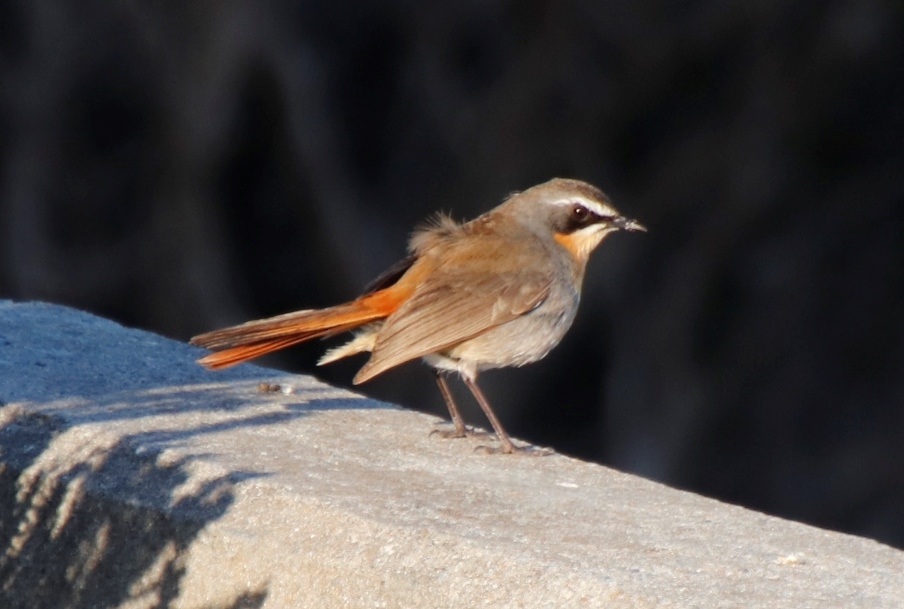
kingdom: Animalia
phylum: Chordata
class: Aves
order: Passeriformes
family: Muscicapidae
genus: Cossypha
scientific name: Cossypha caffra
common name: Cape robin-chat
